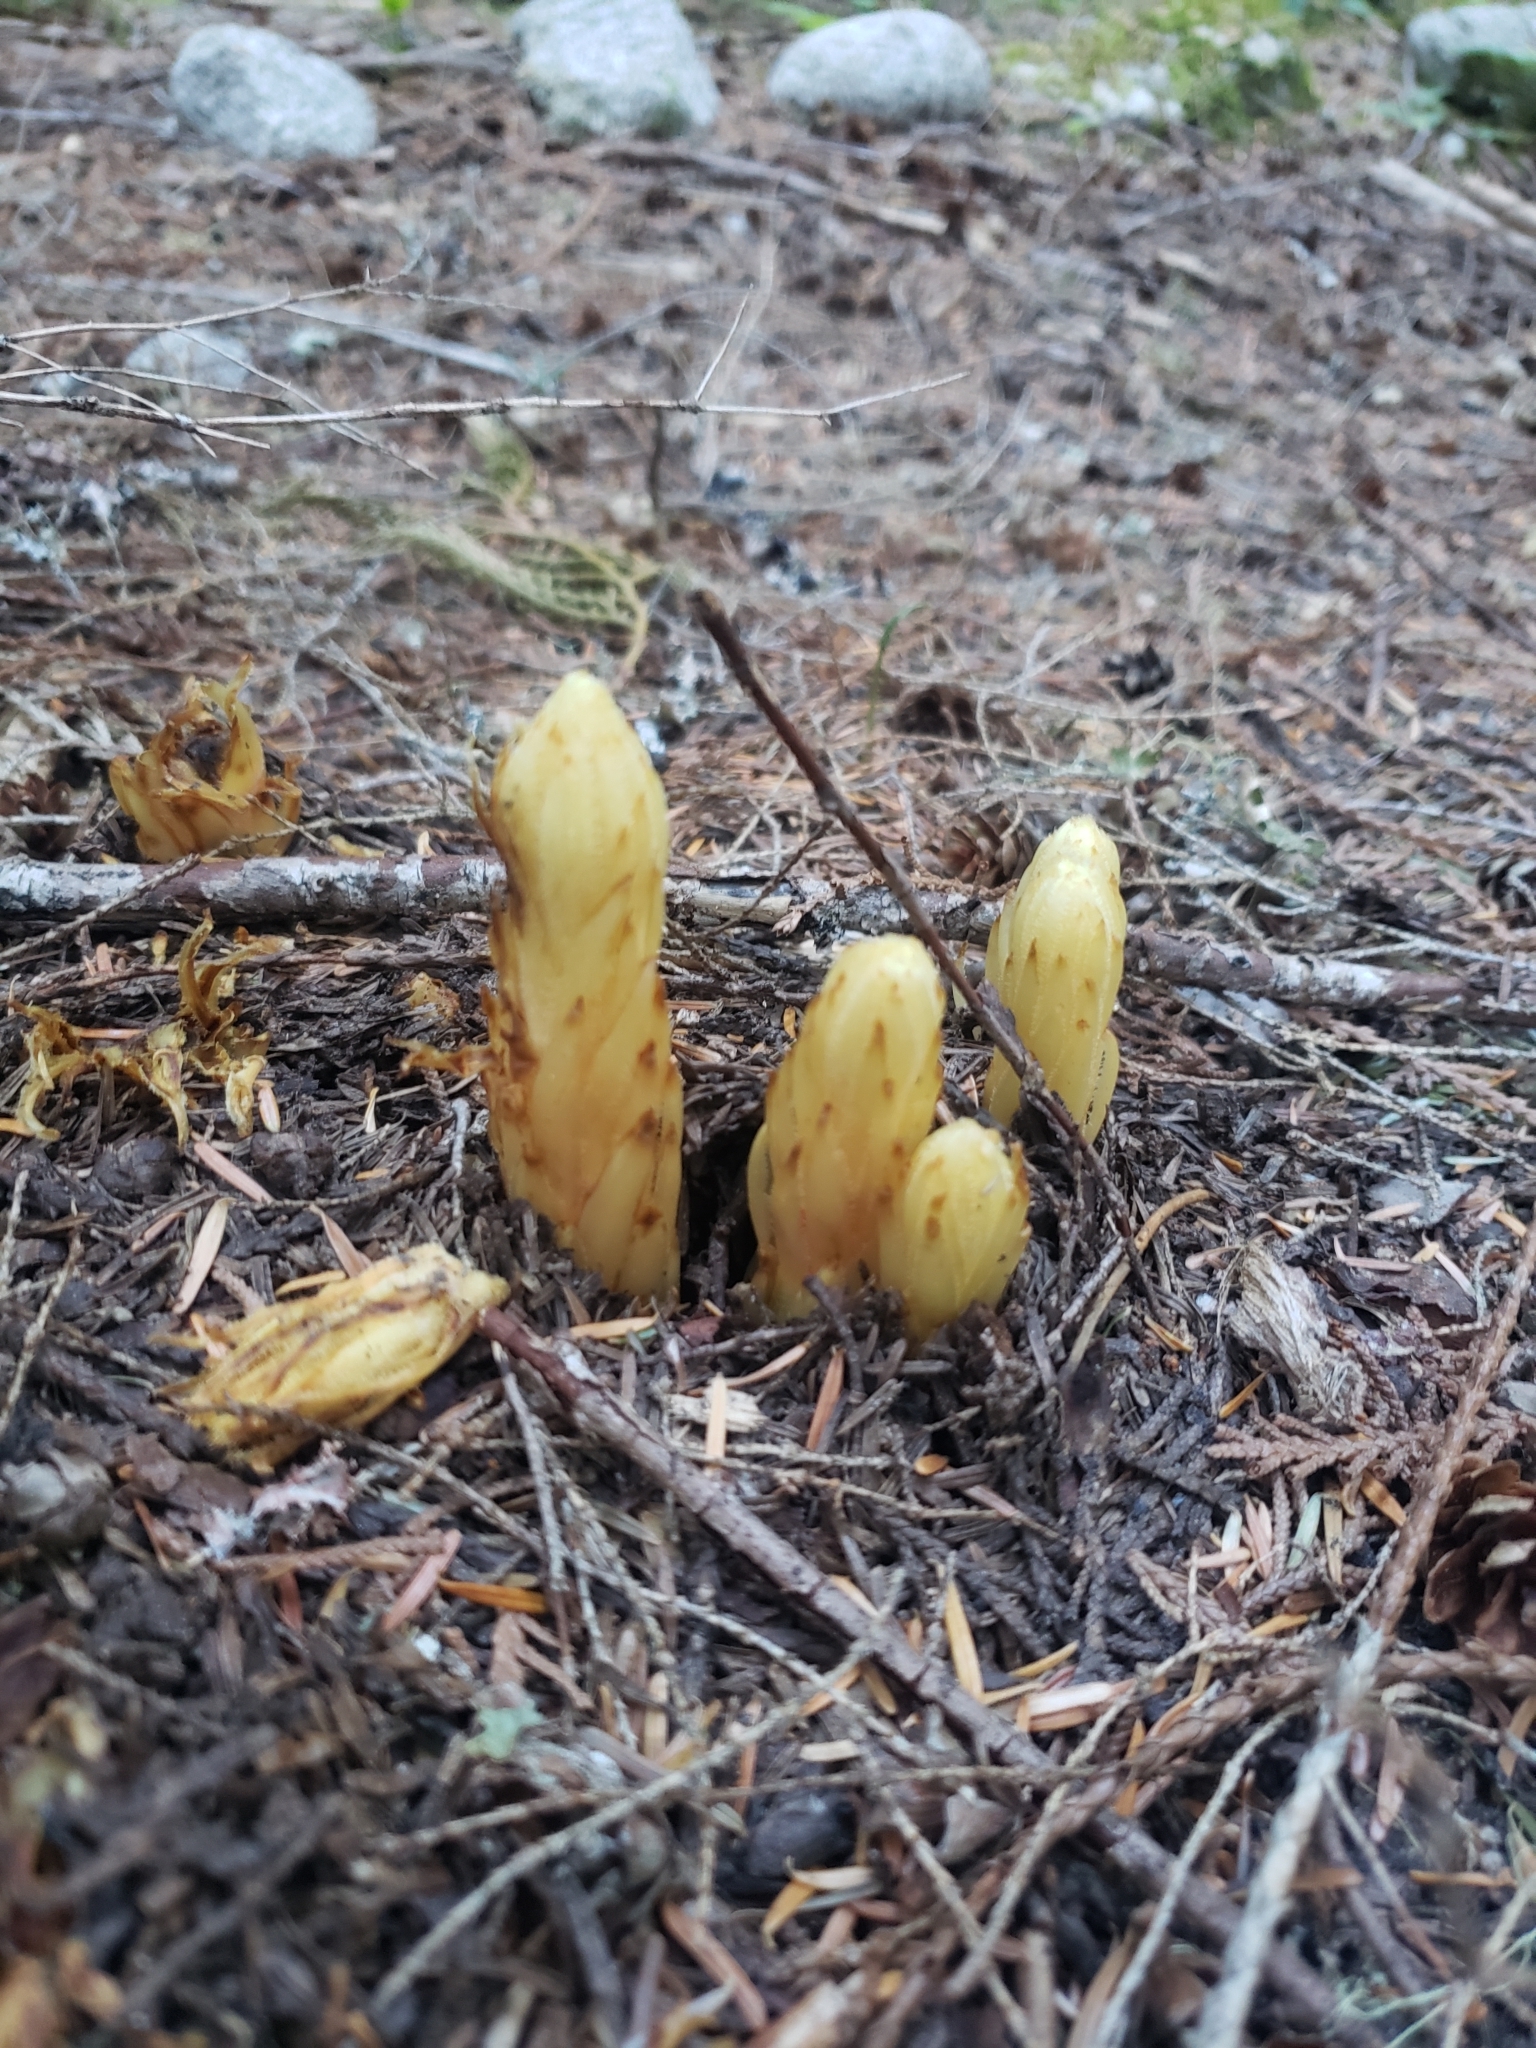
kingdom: Plantae
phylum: Tracheophyta
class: Magnoliopsida
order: Ericales
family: Ericaceae
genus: Pterospora
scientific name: Pterospora andromedea
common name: Giant bird's-nest
